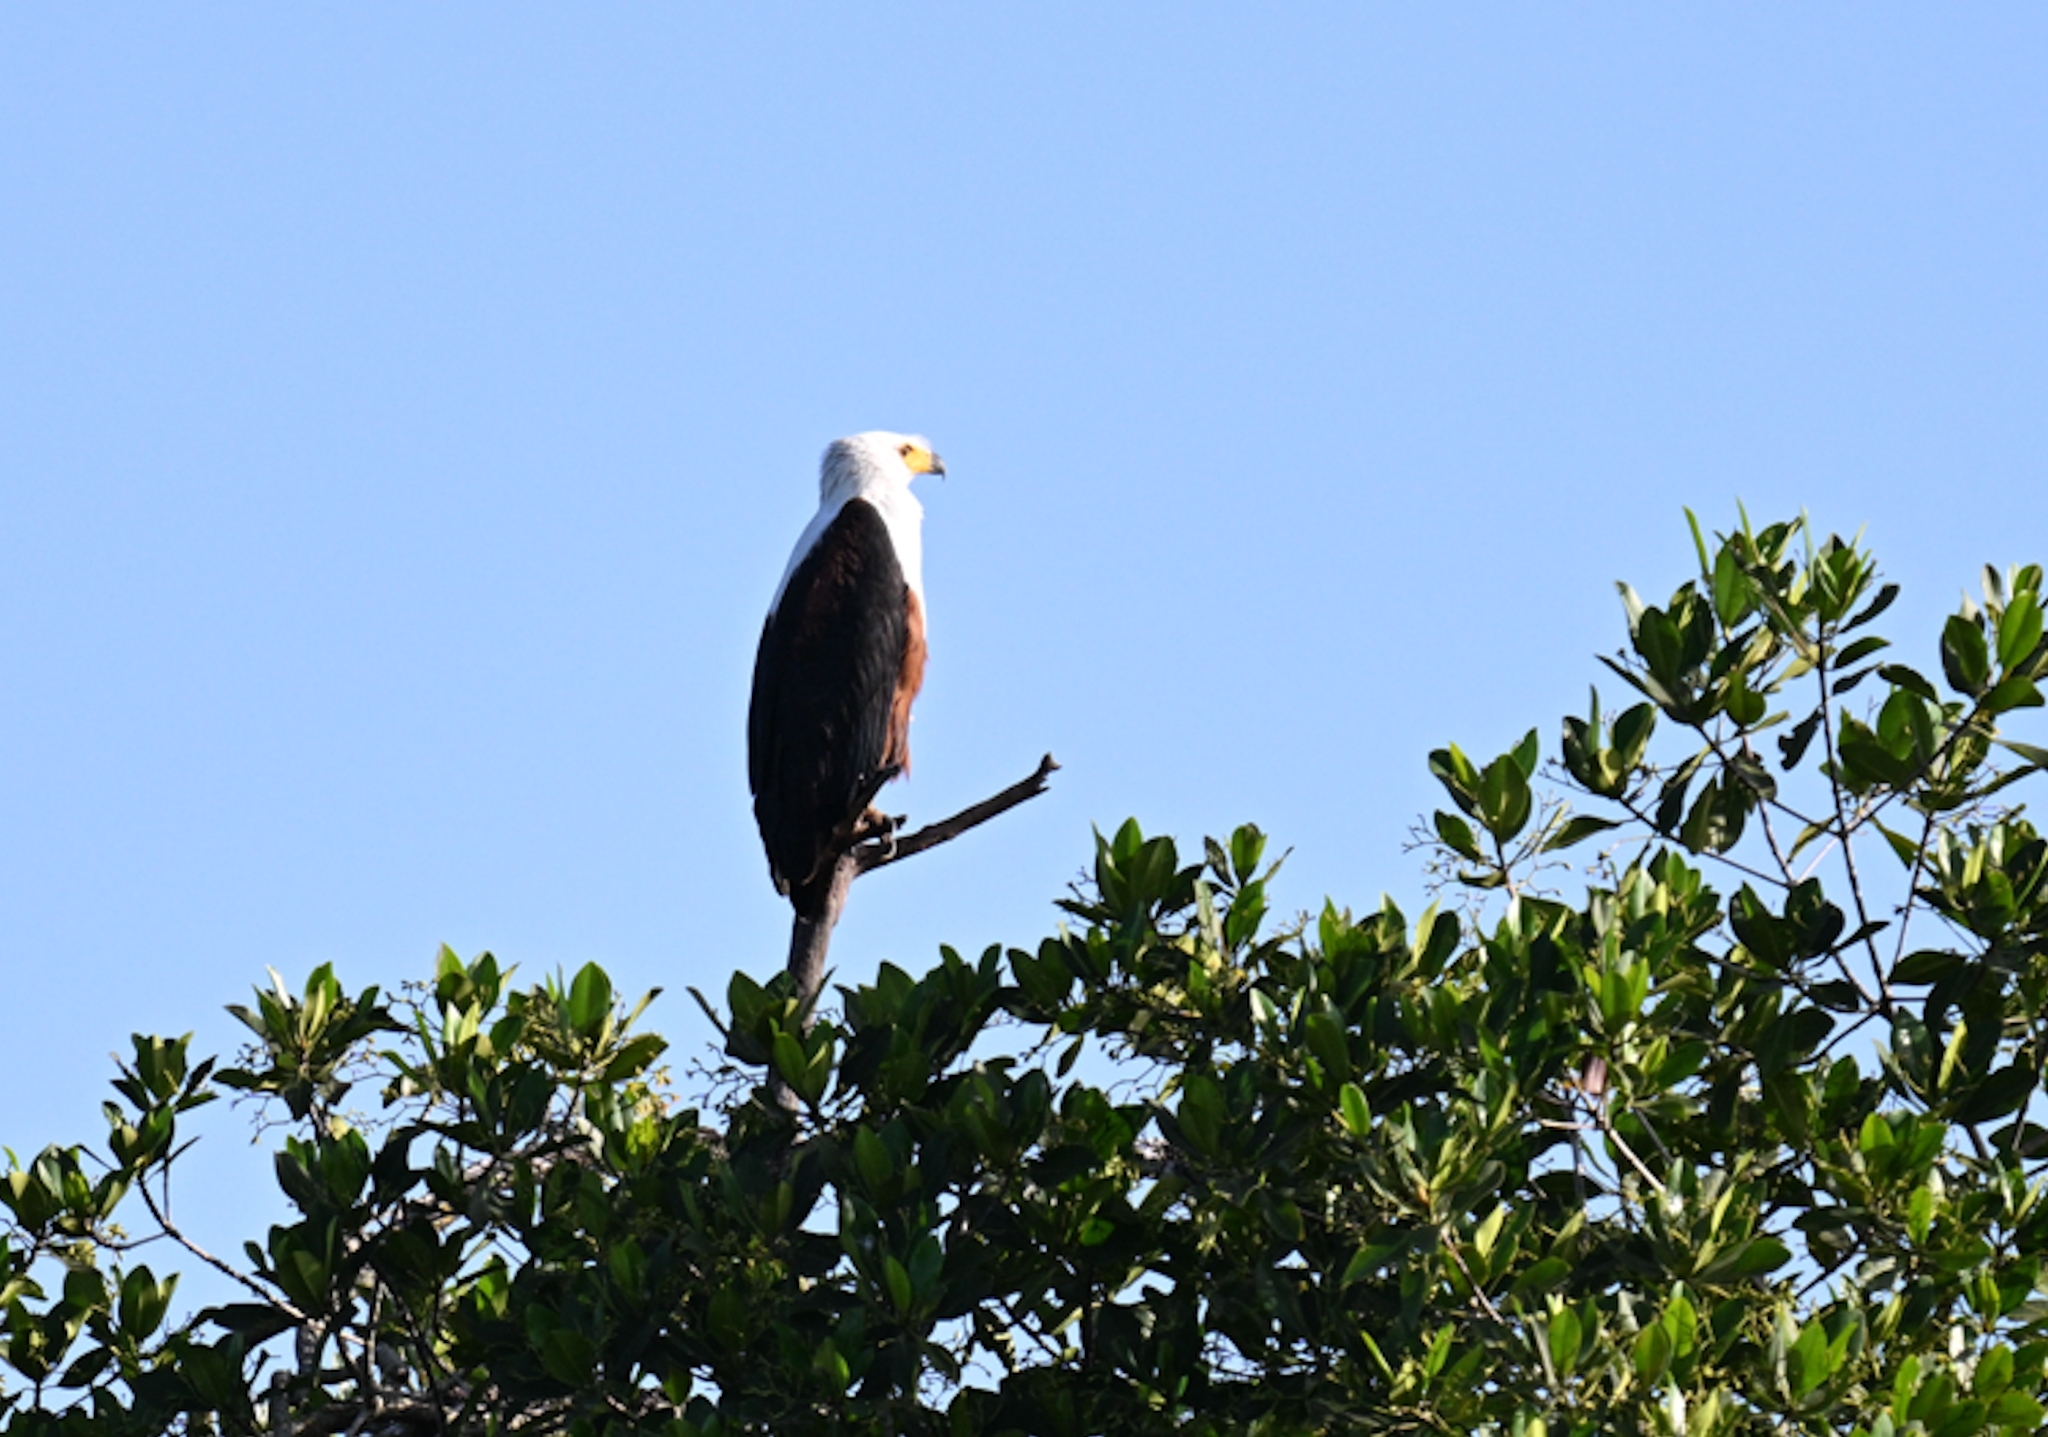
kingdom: Animalia
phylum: Chordata
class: Aves
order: Accipitriformes
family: Accipitridae
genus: Haliaeetus
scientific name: Haliaeetus vocifer
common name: African fish eagle
